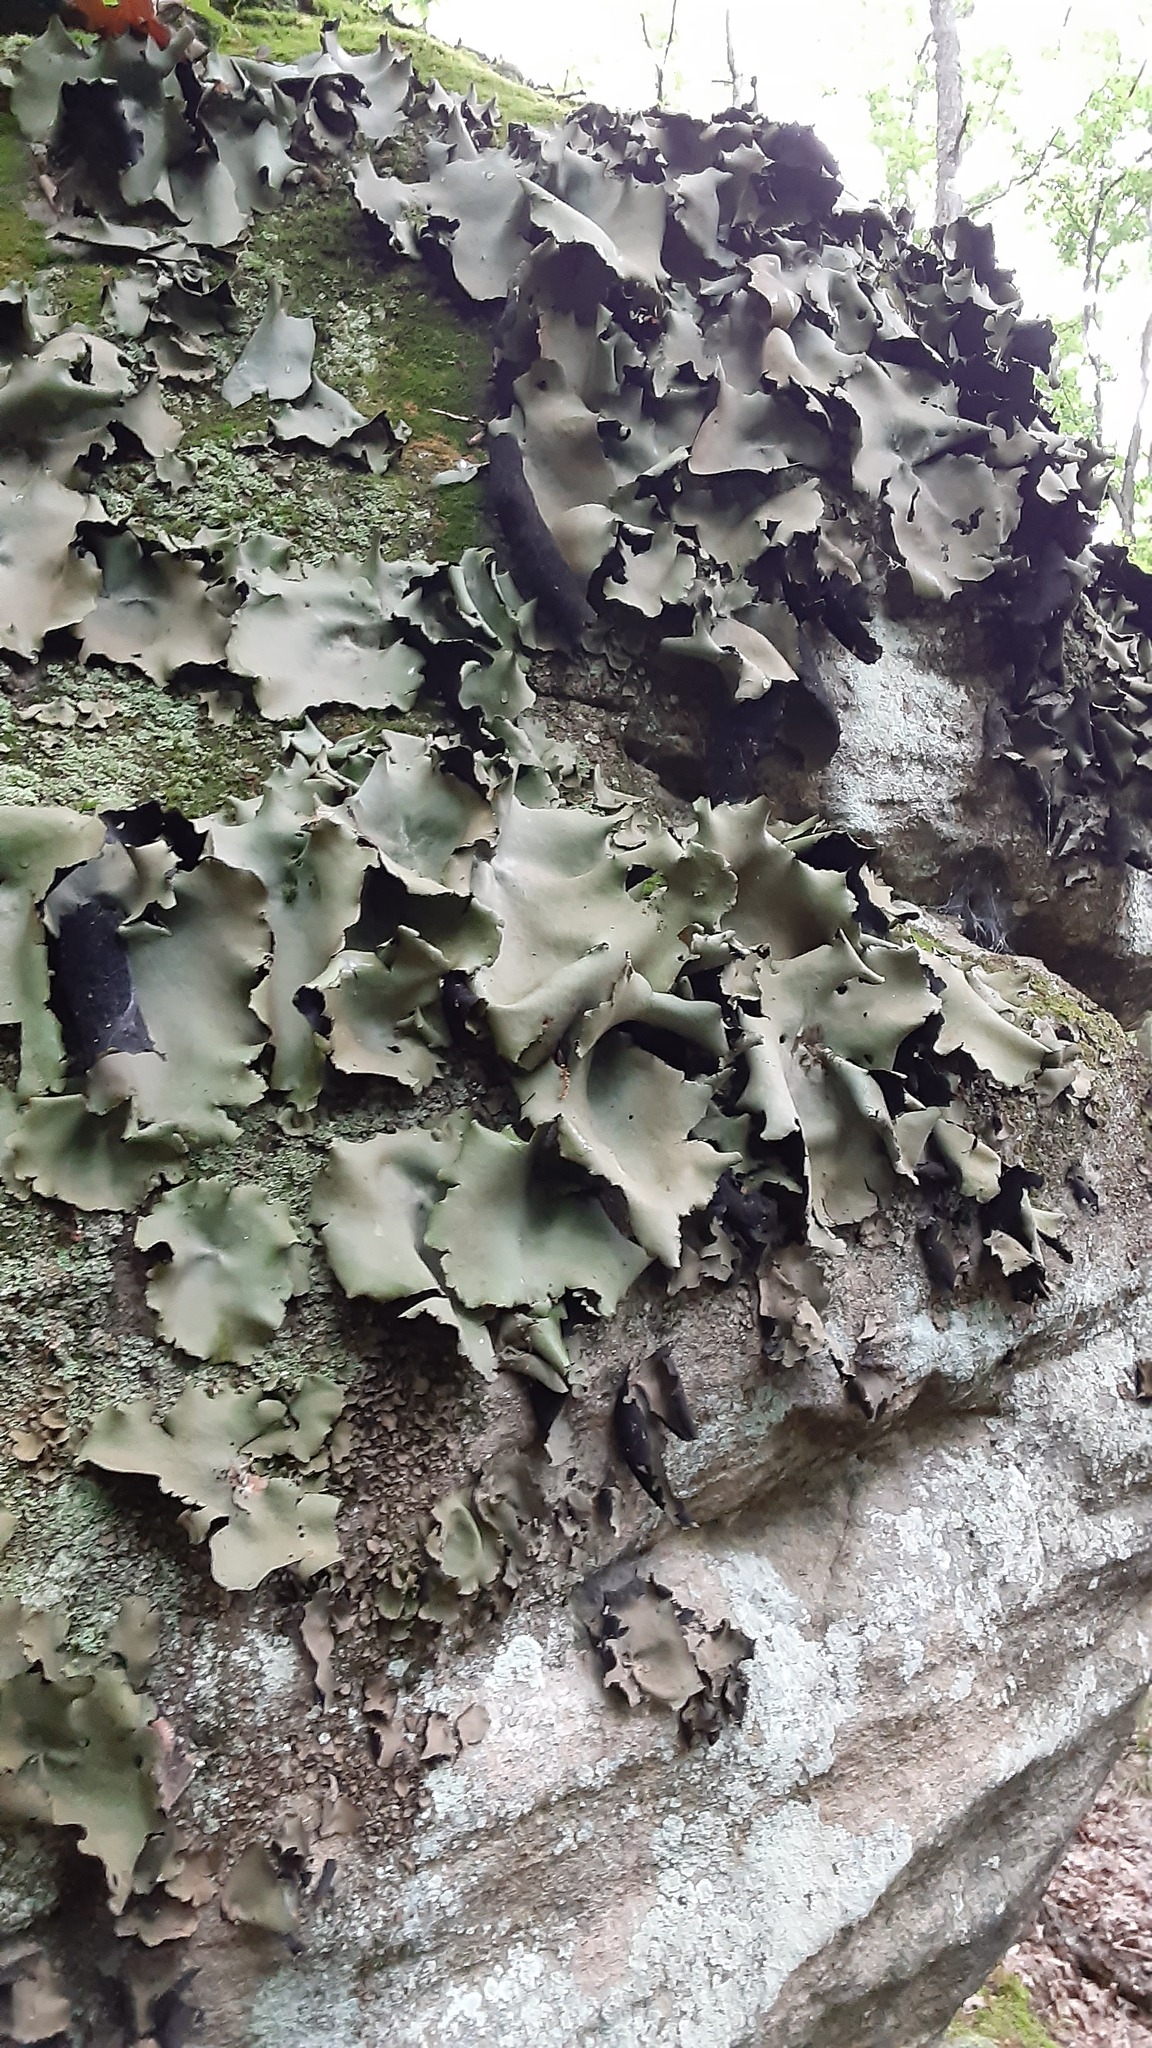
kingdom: Fungi
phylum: Ascomycota
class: Lecanoromycetes
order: Umbilicariales
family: Umbilicariaceae
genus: Umbilicaria
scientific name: Umbilicaria mammulata
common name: Smooth rock tripe
